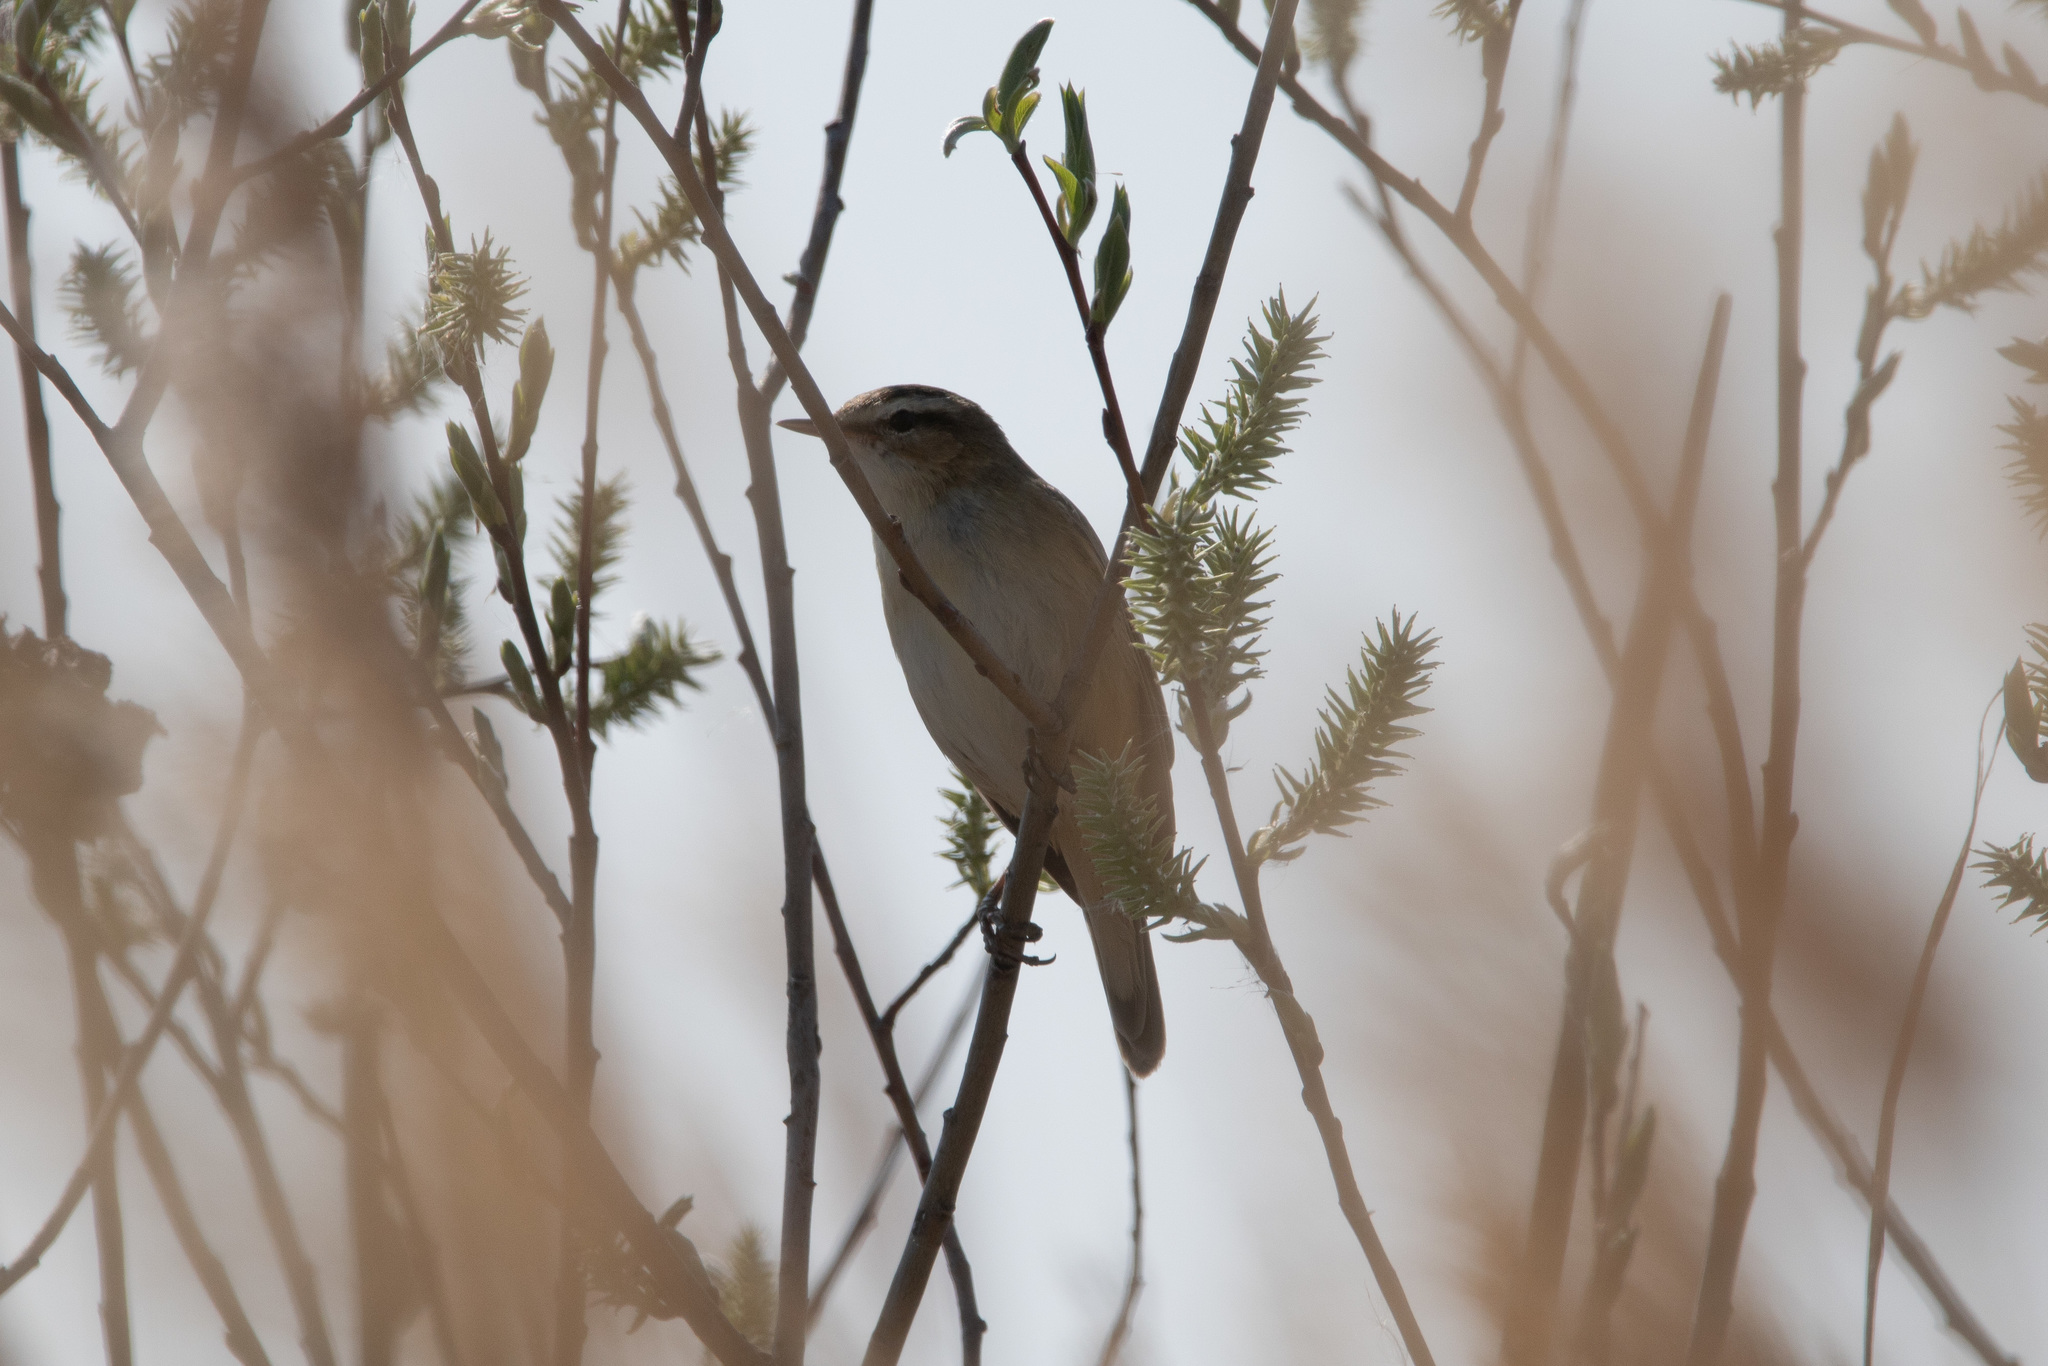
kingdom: Animalia
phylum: Chordata
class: Aves
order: Passeriformes
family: Acrocephalidae
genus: Acrocephalus
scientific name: Acrocephalus schoenobaenus
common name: Sedge warbler
